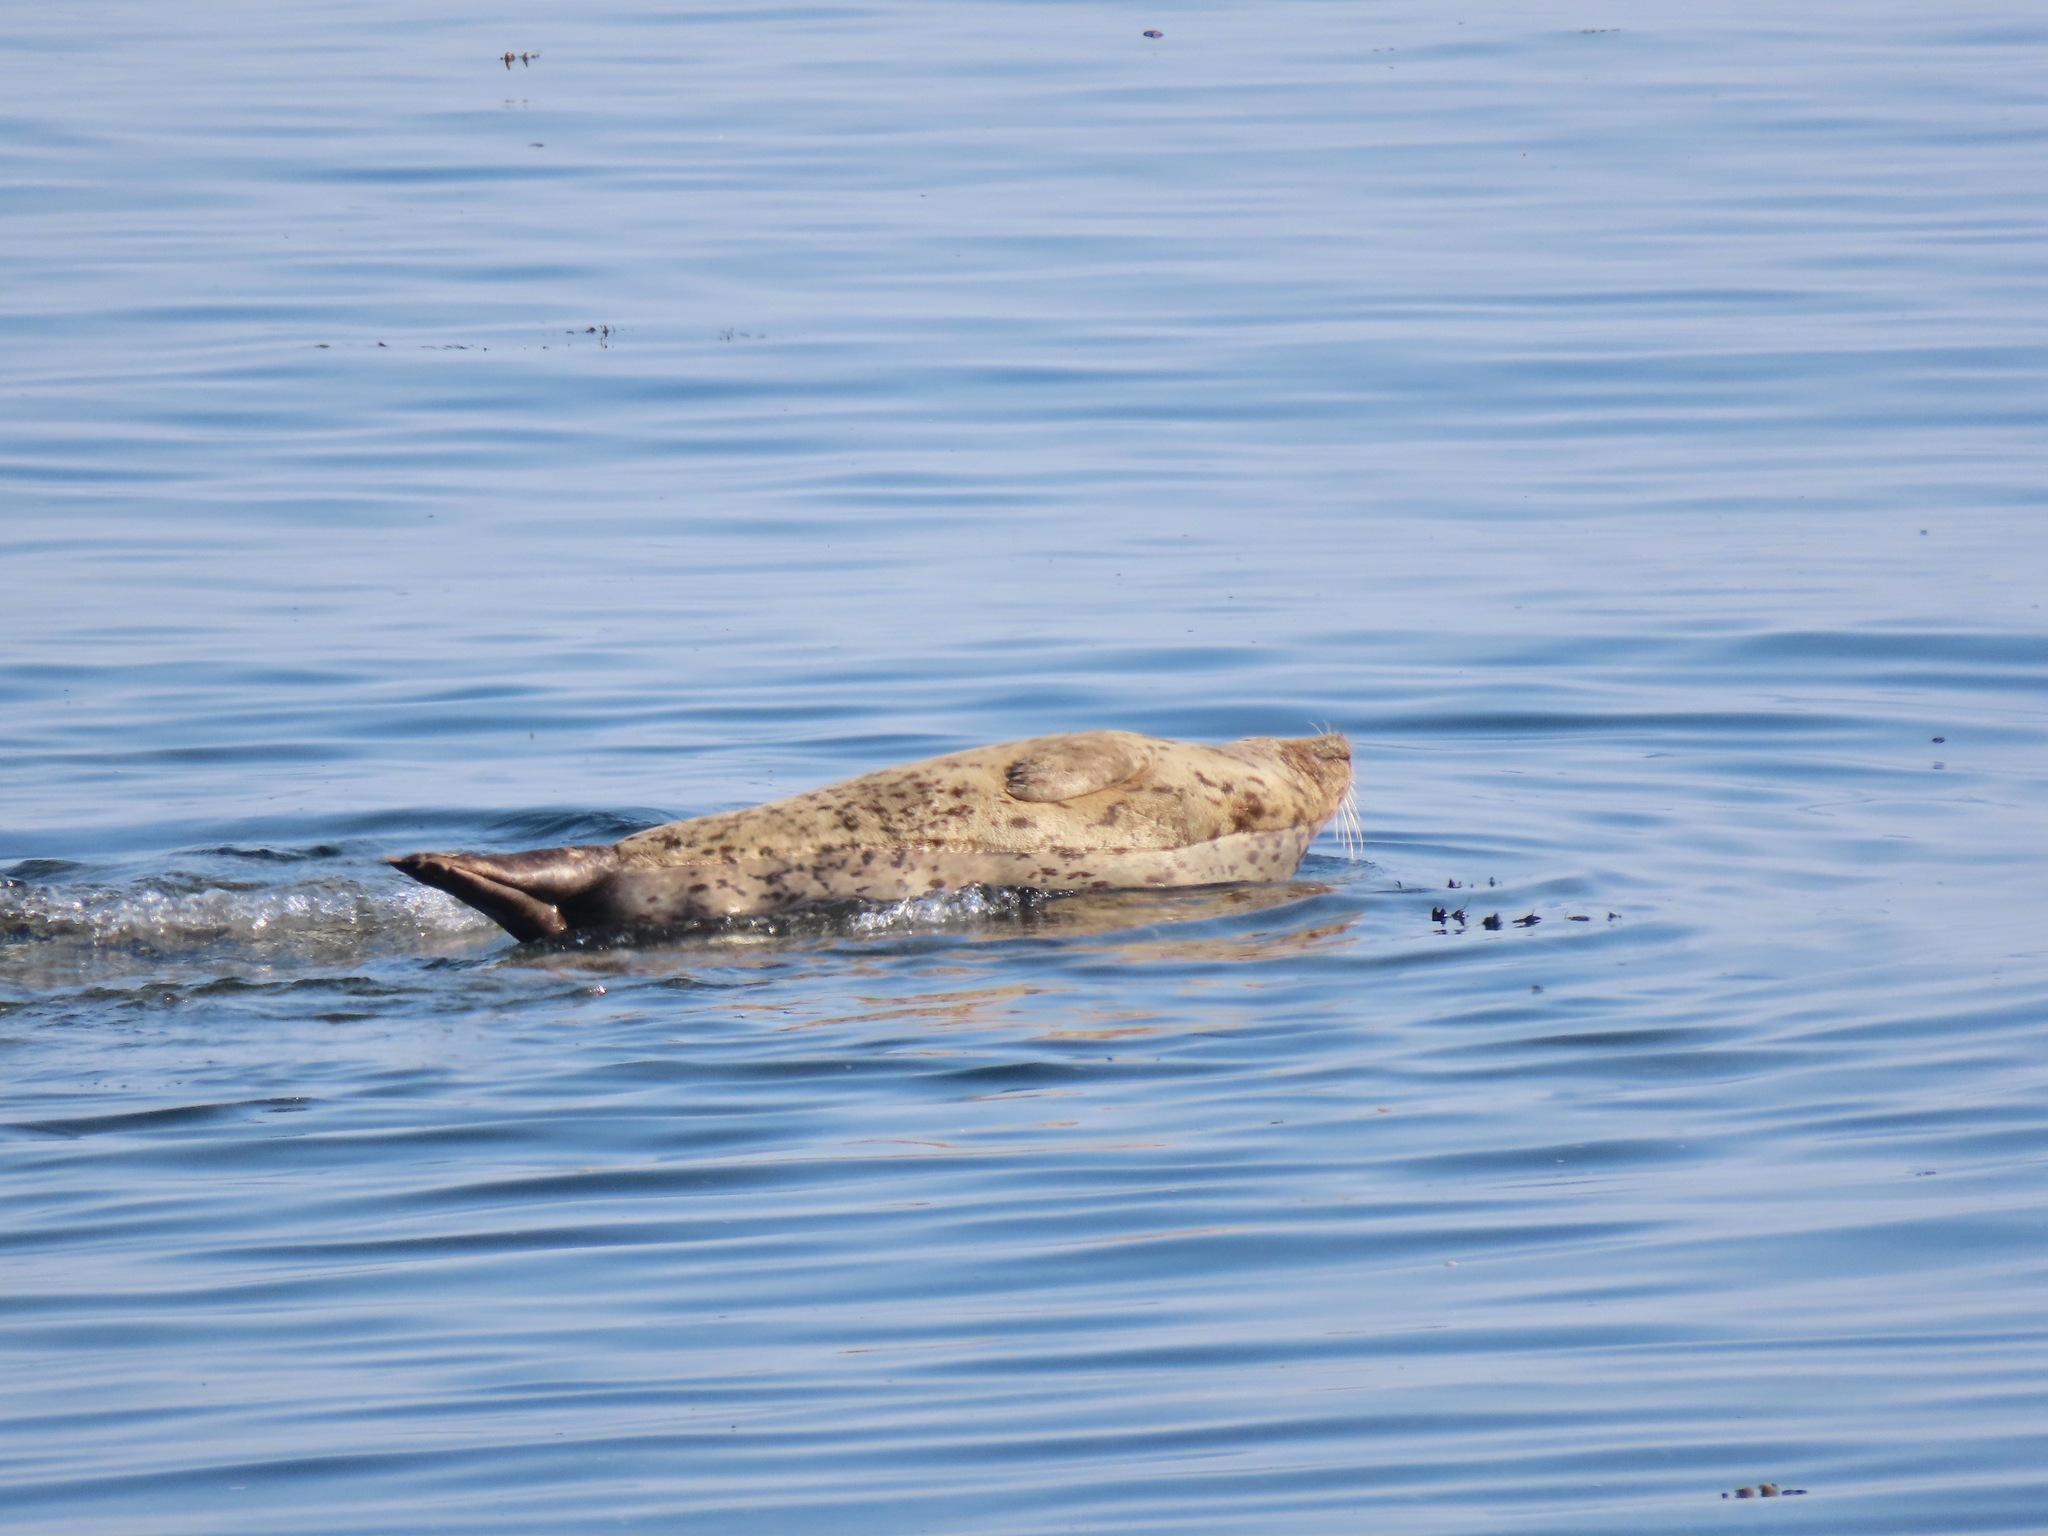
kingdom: Animalia
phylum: Chordata
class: Mammalia
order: Carnivora
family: Phocidae
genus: Phoca
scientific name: Phoca vitulina
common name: Harbor seal
